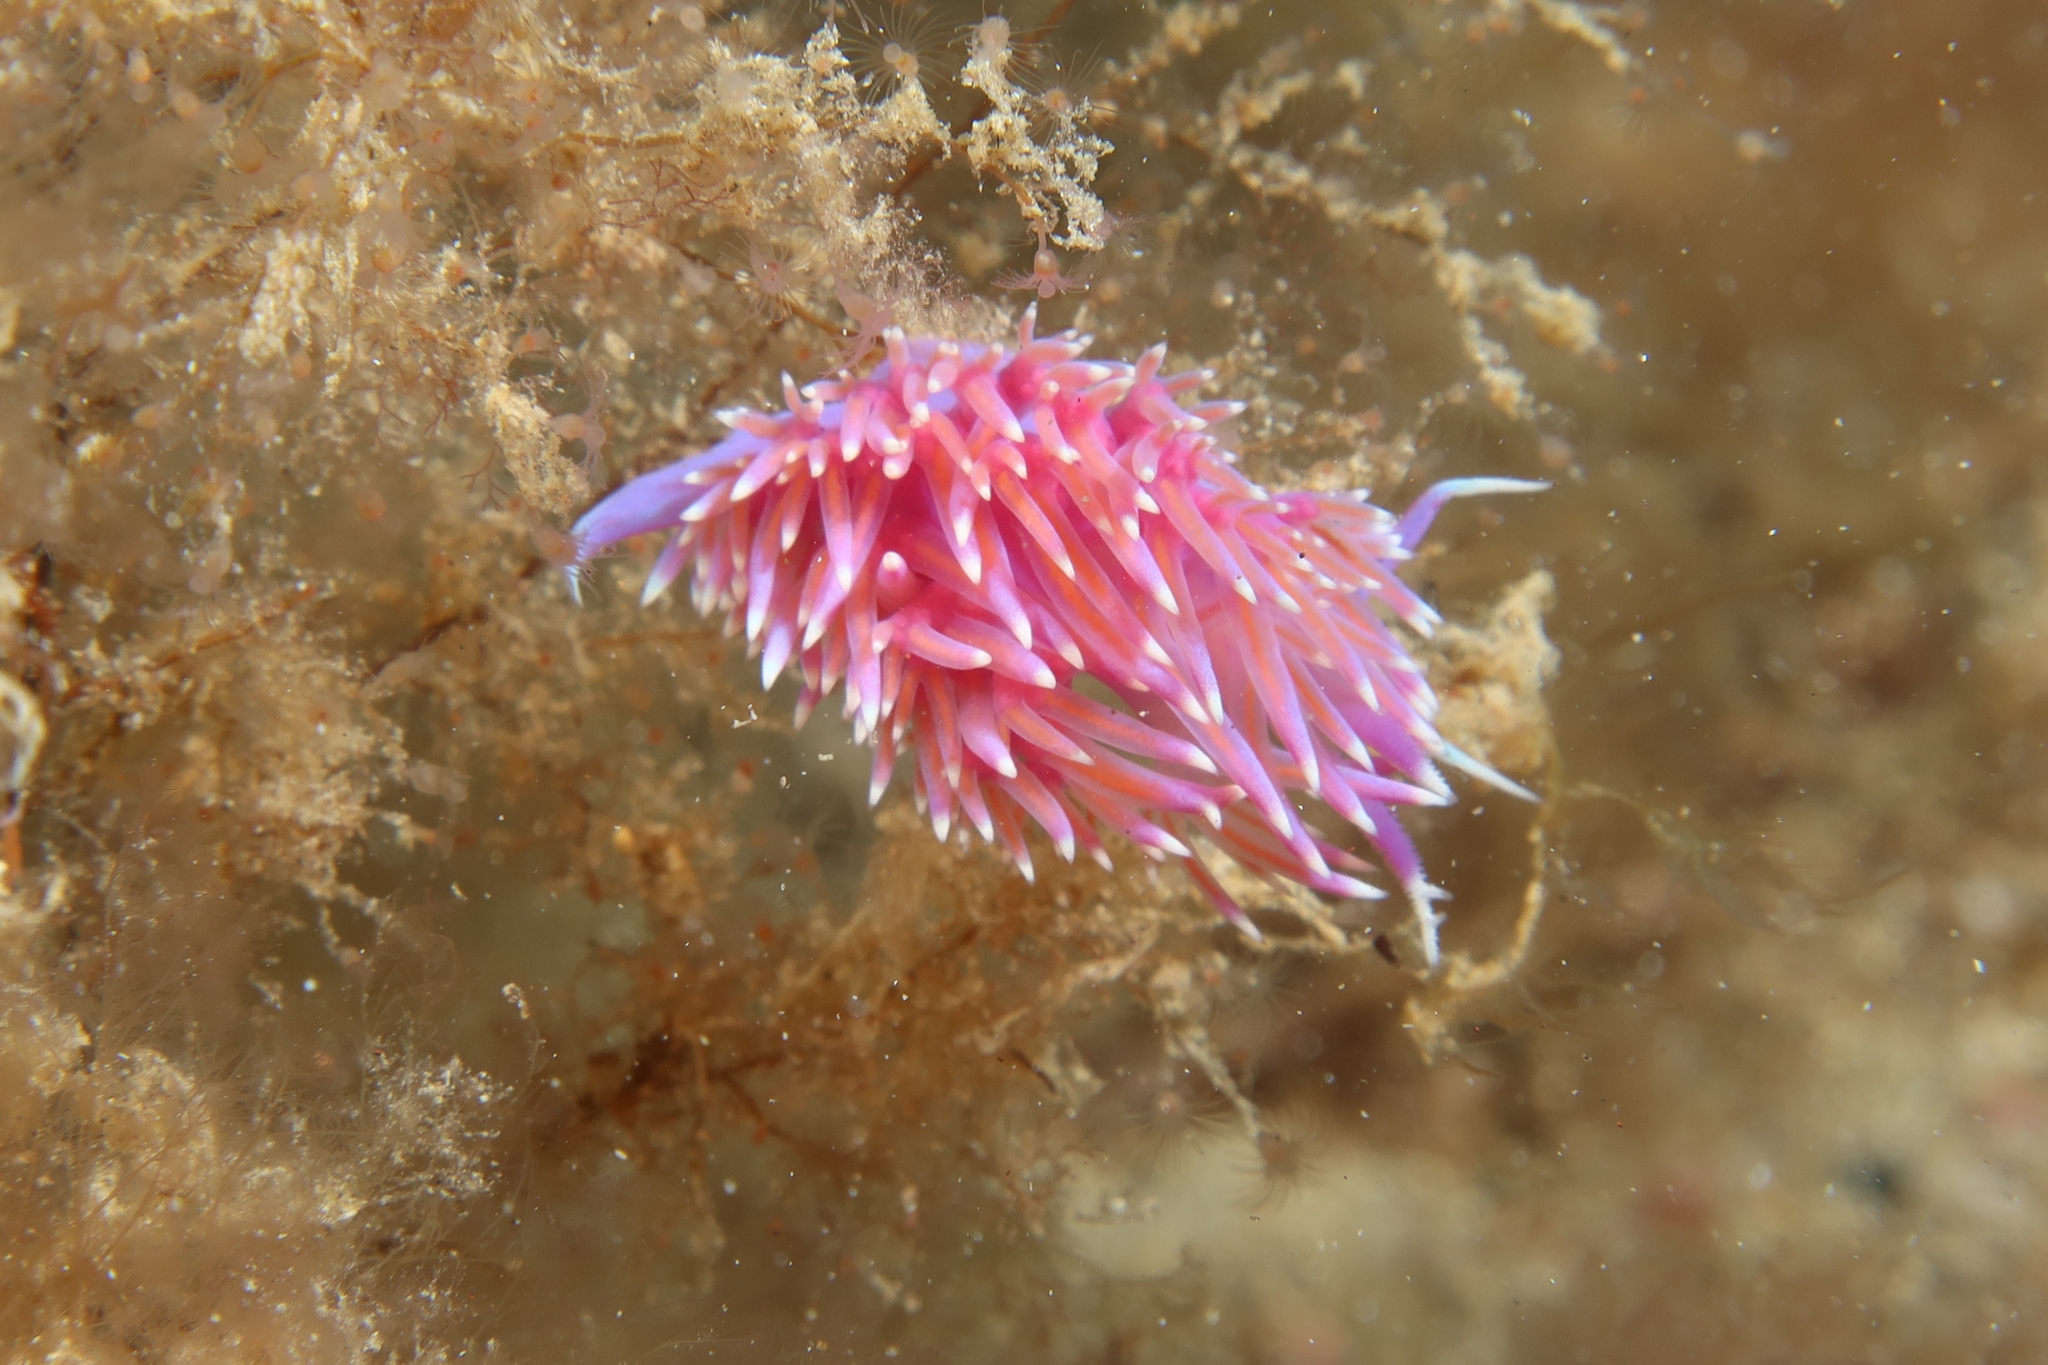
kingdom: Animalia
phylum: Mollusca
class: Gastropoda
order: Nudibranchia
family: Flabellinidae
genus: Flabellina
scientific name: Flabellina affinis
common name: Mediterranean violet aeolid
